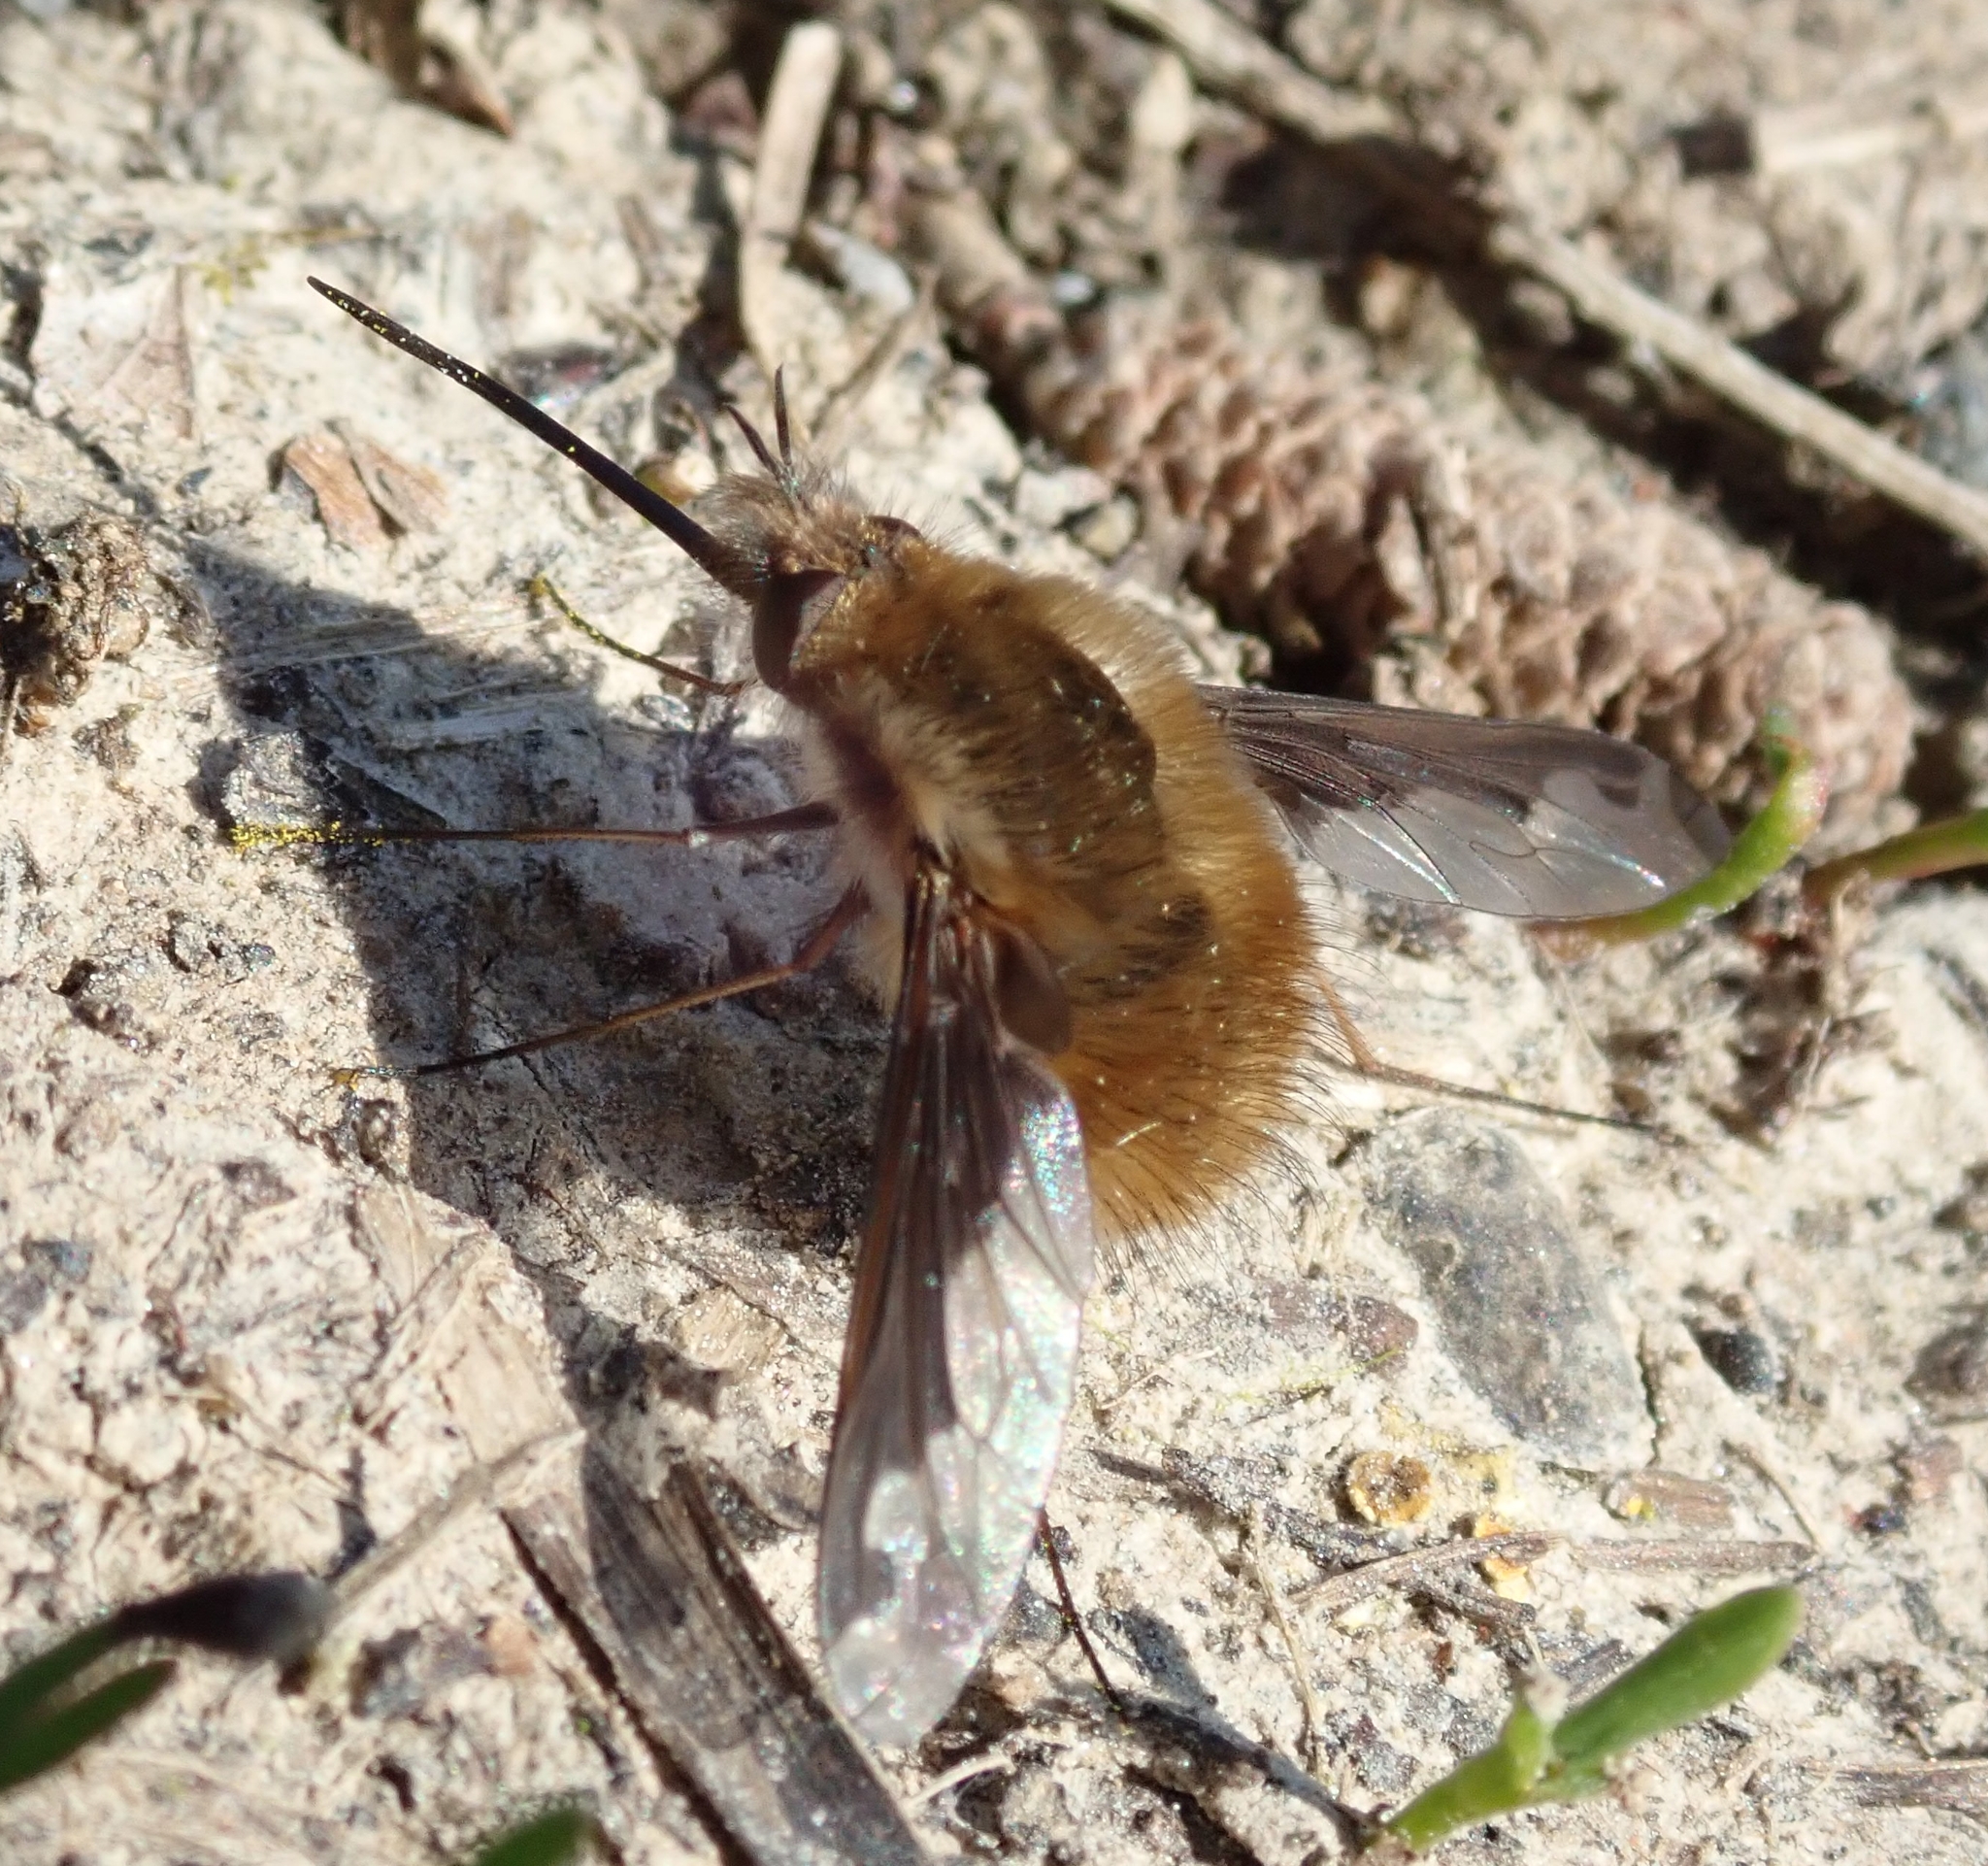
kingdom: Animalia
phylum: Arthropoda
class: Insecta
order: Diptera
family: Bombyliidae
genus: Bombylius
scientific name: Bombylius major
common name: Bee fly
